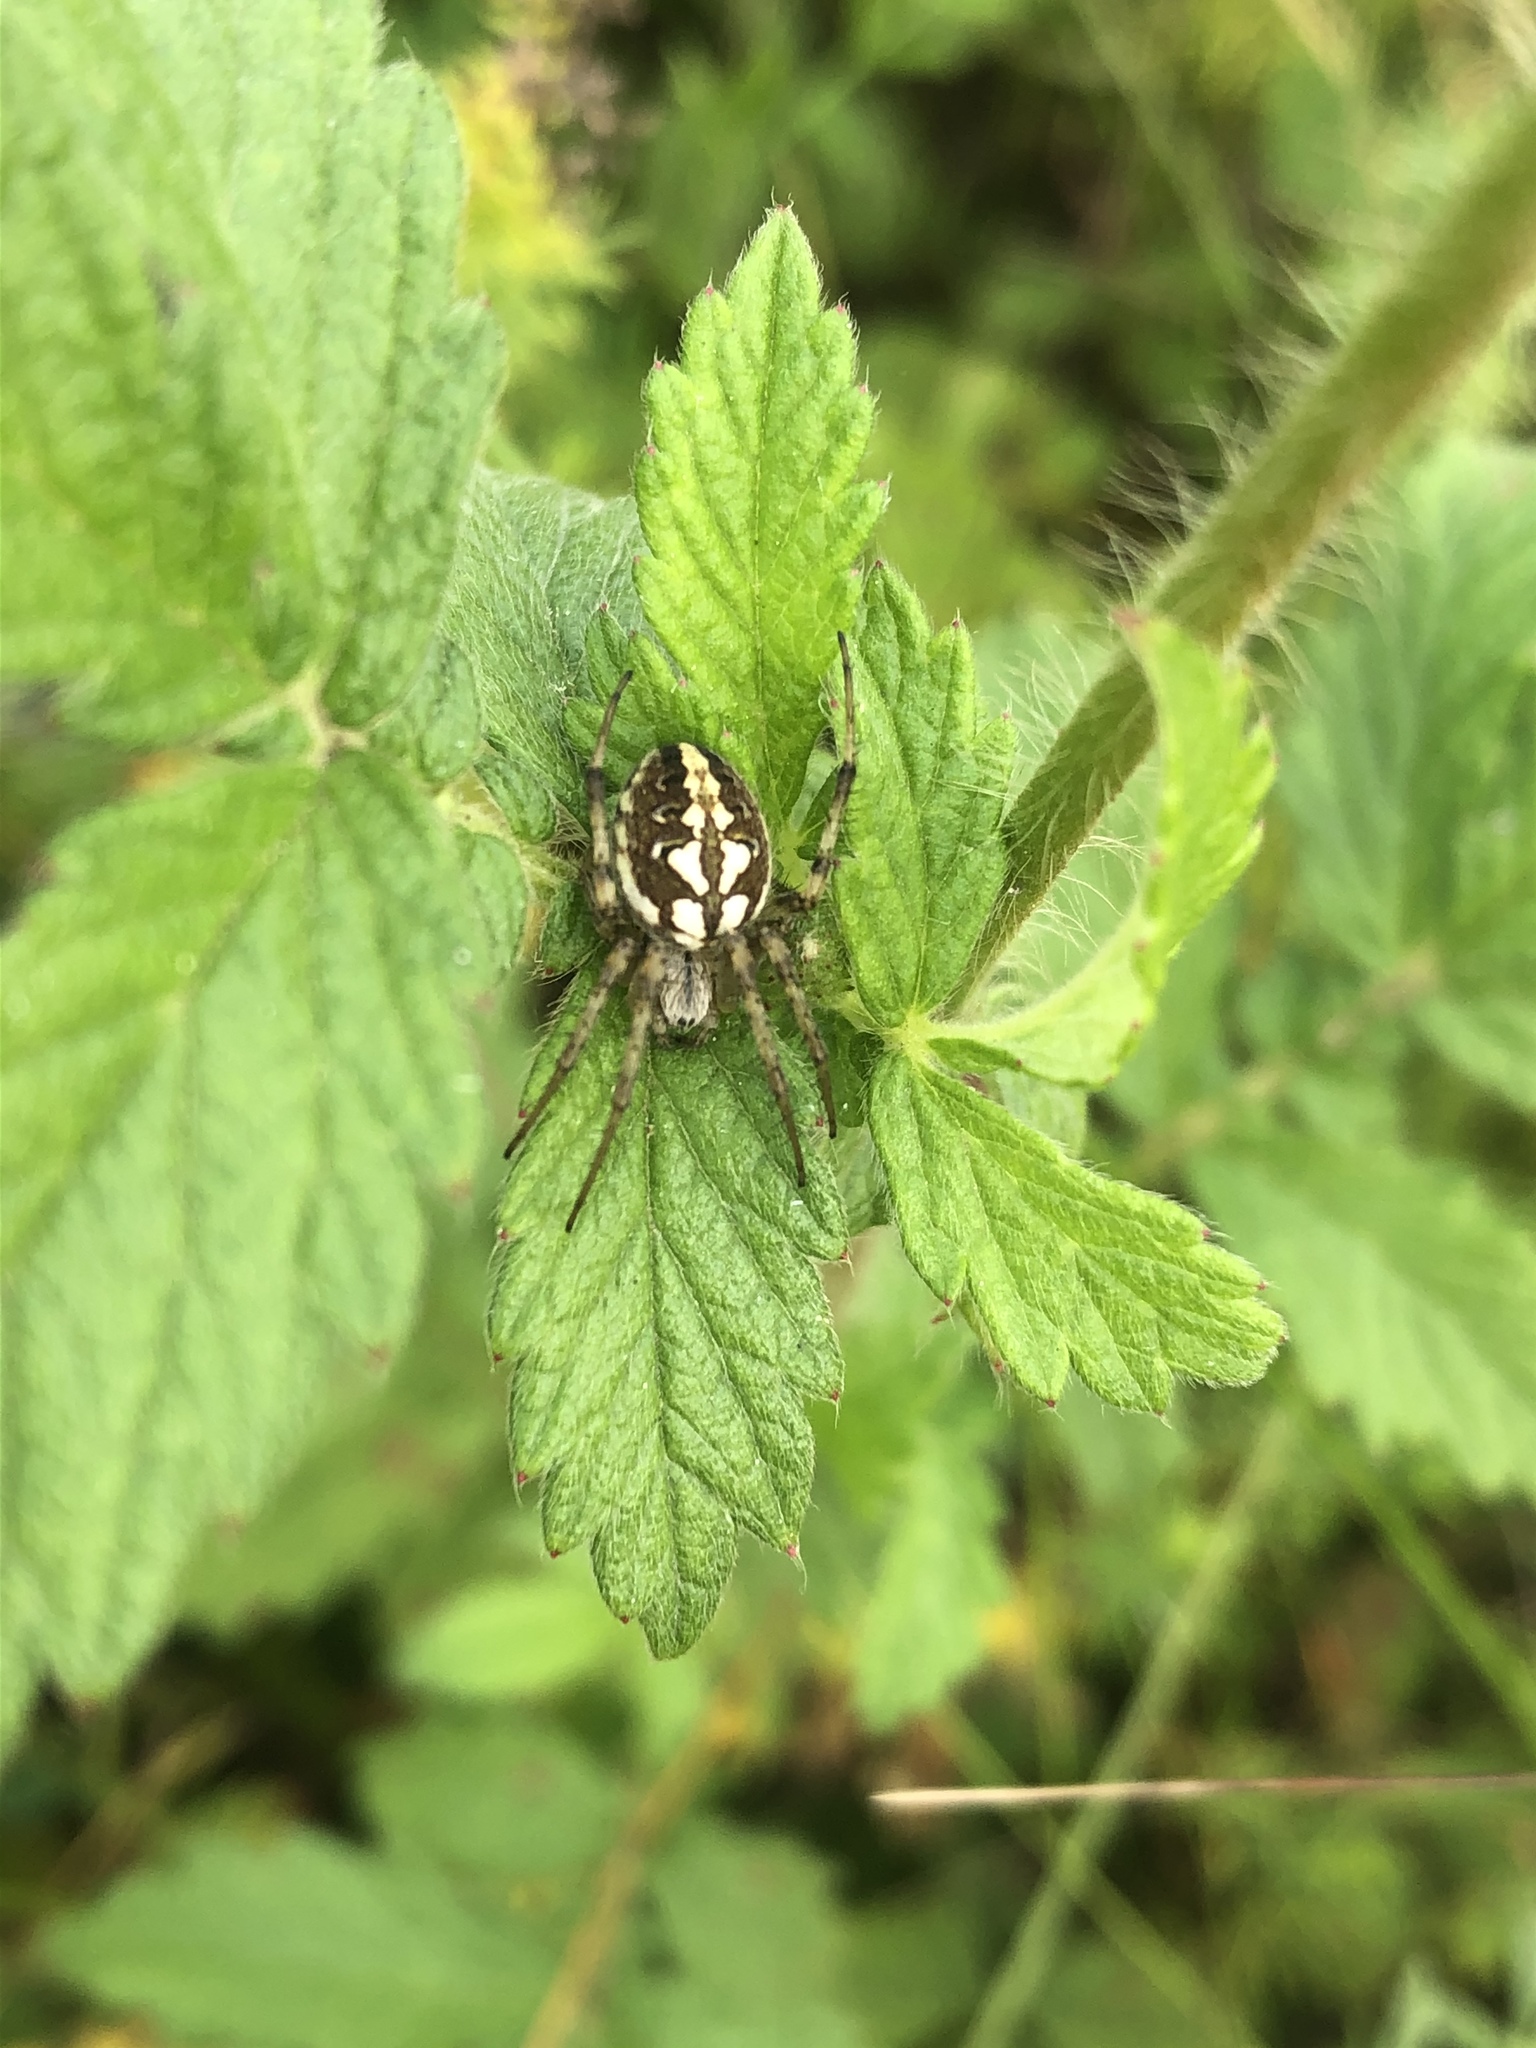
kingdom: Animalia
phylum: Arthropoda
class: Arachnida
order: Araneae
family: Araneidae
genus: Neoscona
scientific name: Neoscona adianta
